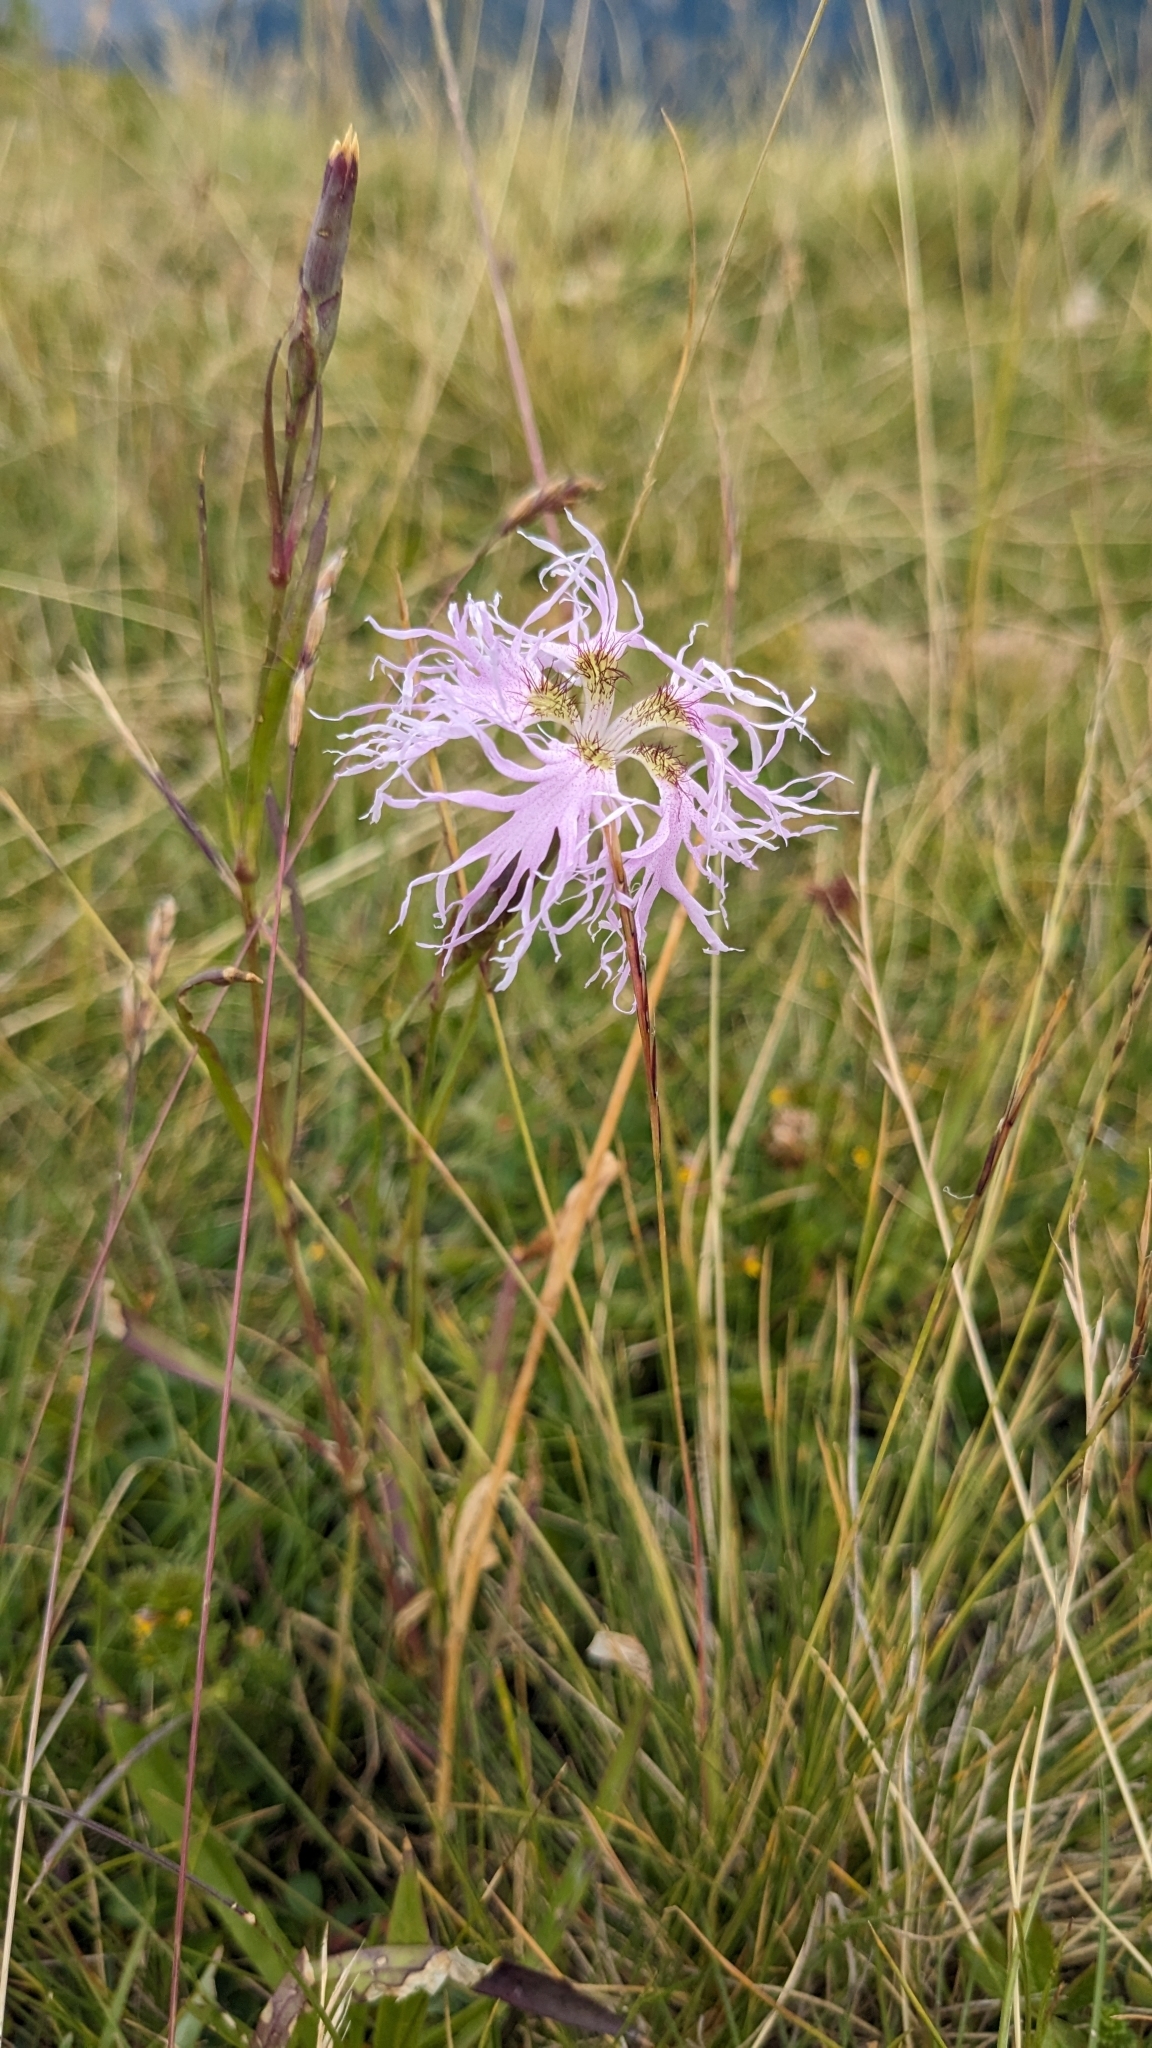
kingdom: Plantae
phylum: Tracheophyta
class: Magnoliopsida
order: Caryophyllales
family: Caryophyllaceae
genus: Dianthus
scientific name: Dianthus superbus
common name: Fringed pink
